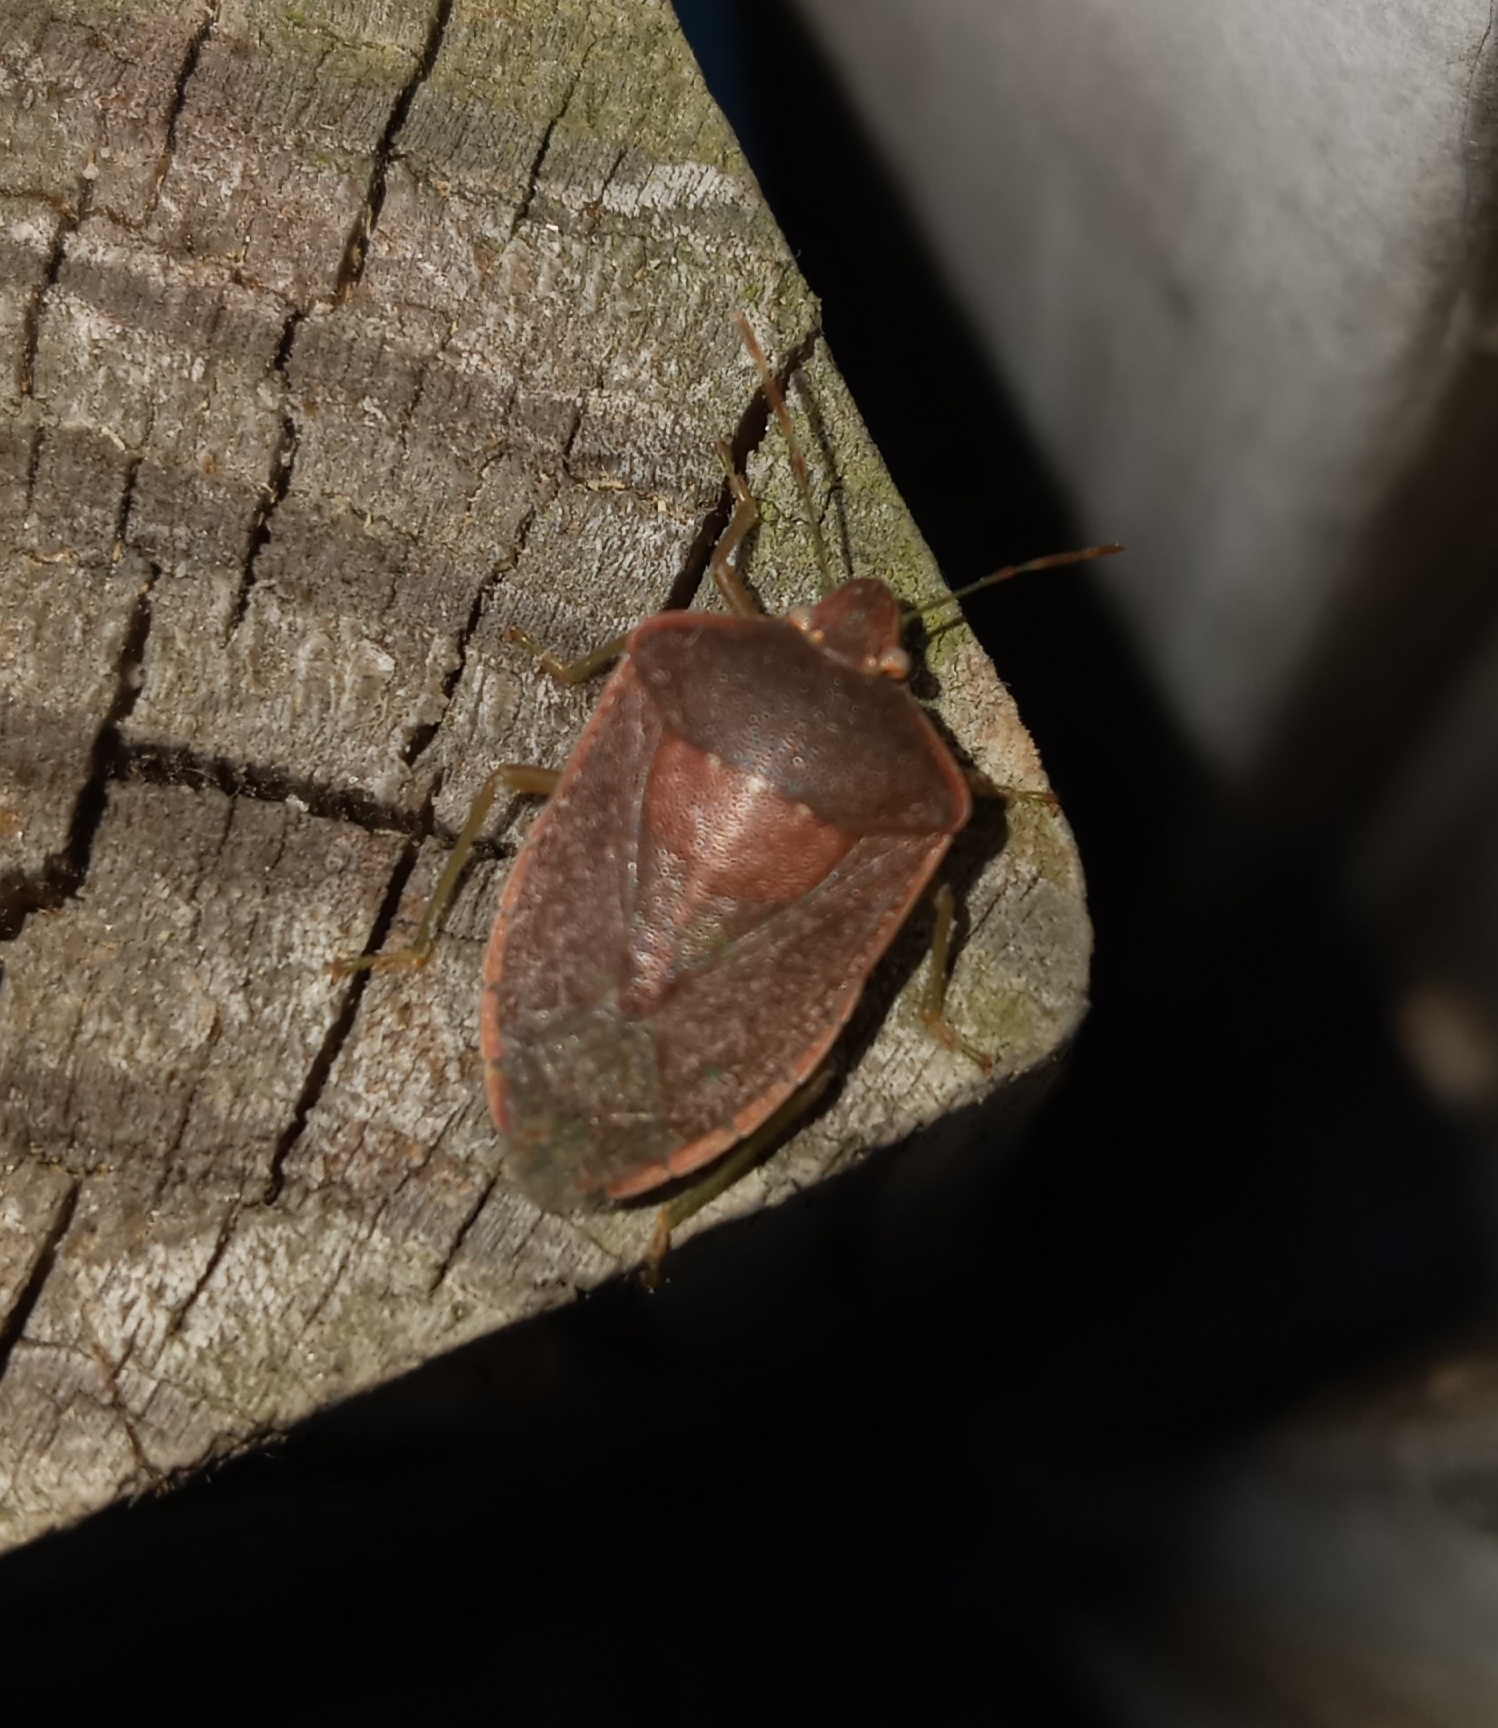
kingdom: Animalia
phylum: Arthropoda
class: Insecta
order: Hemiptera
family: Pentatomidae
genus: Nezara
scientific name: Nezara viridula
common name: Southern green stink bug
